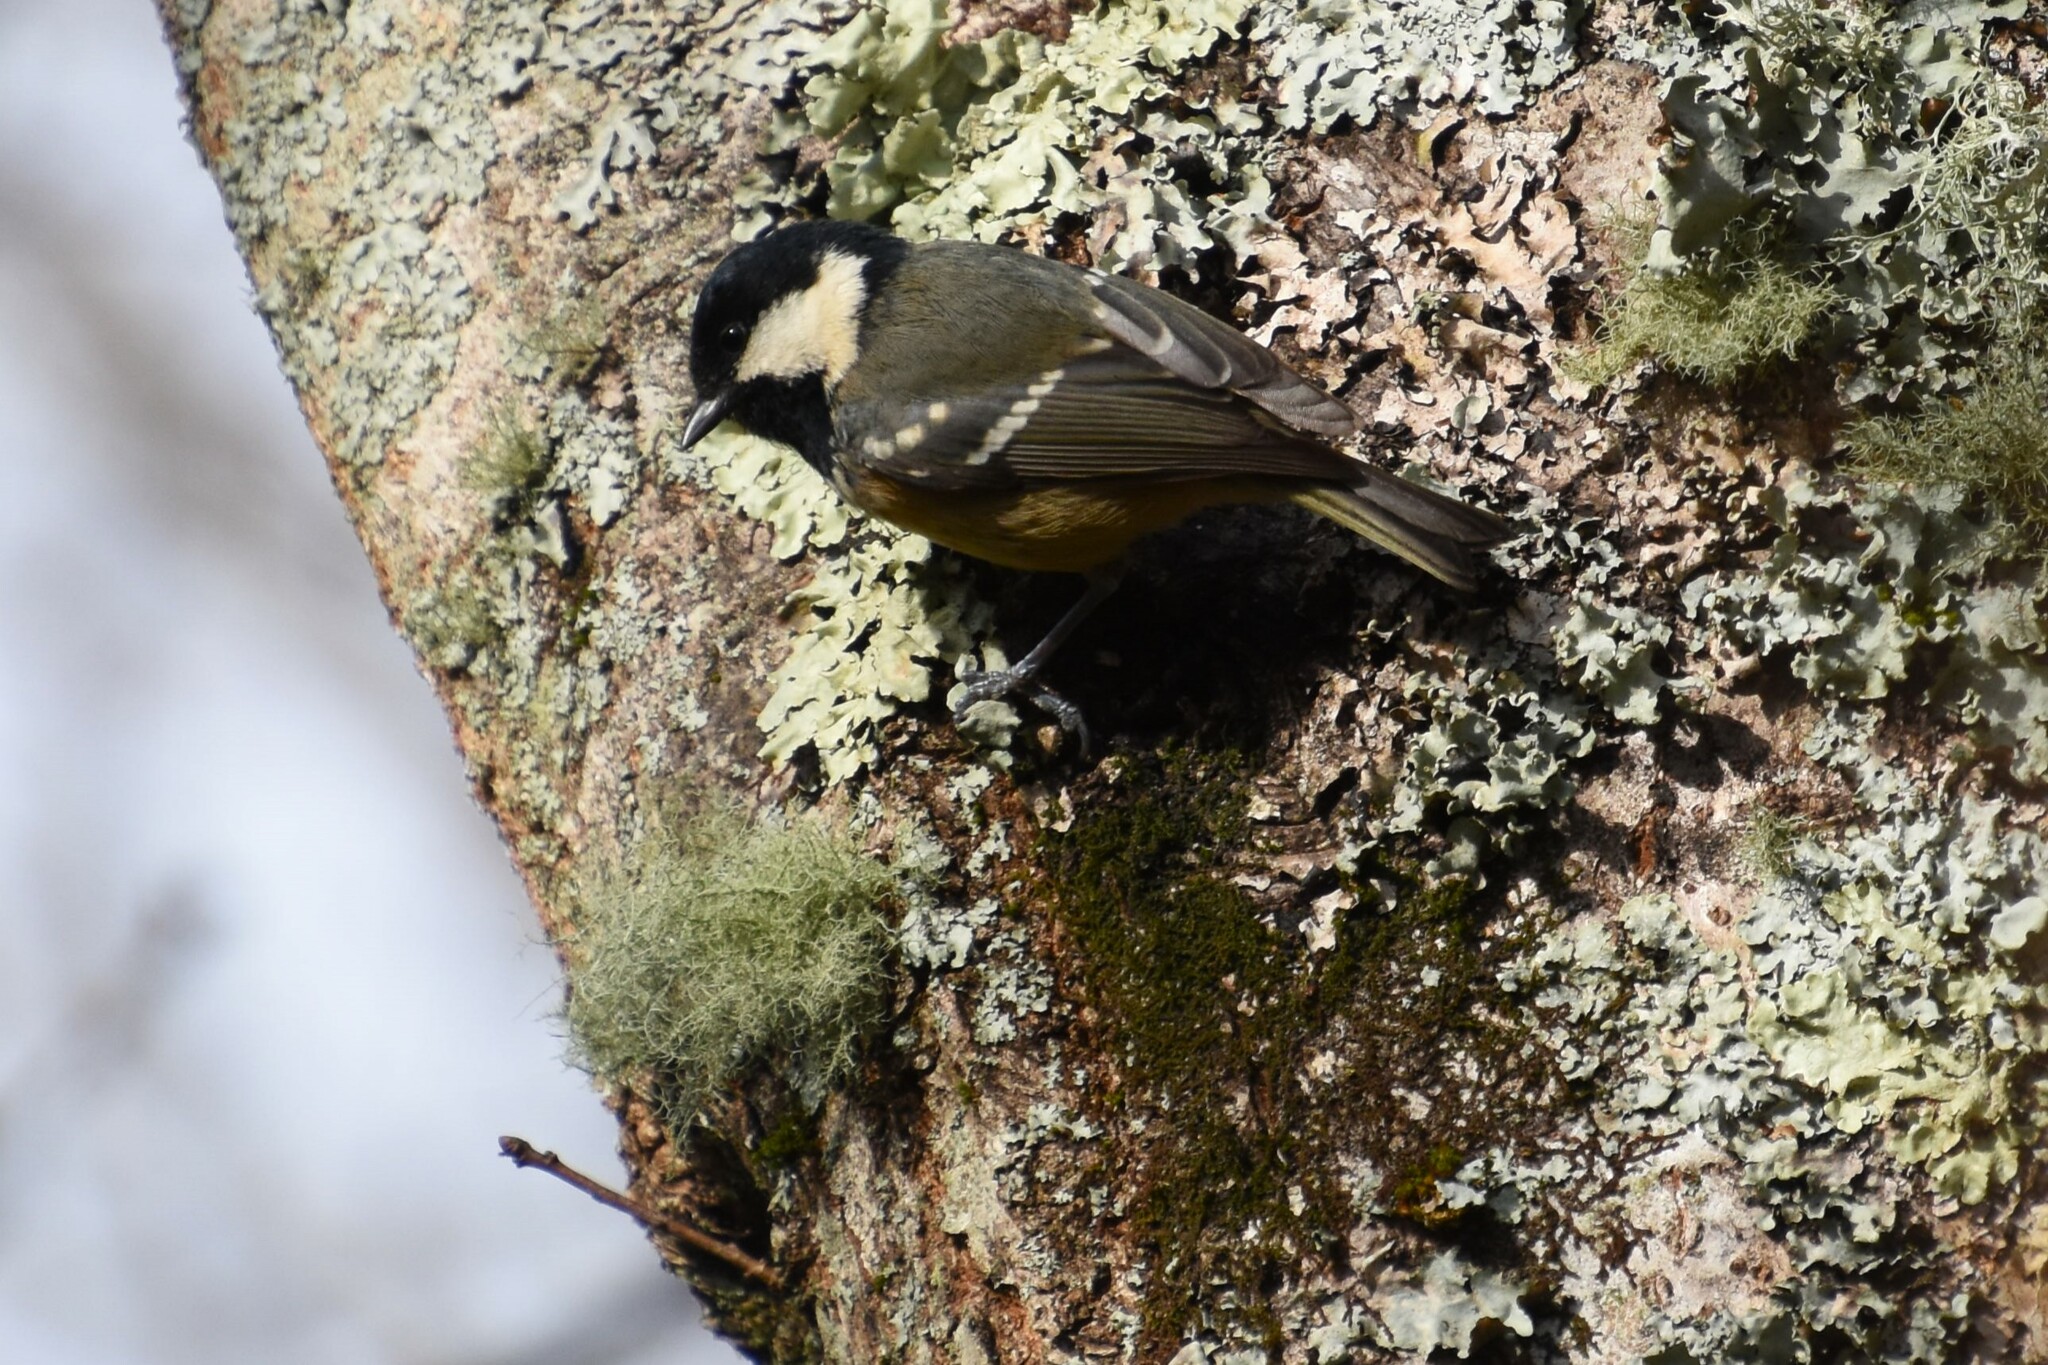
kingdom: Animalia
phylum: Chordata
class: Aves
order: Passeriformes
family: Paridae
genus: Periparus
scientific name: Periparus ater
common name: Coal tit
